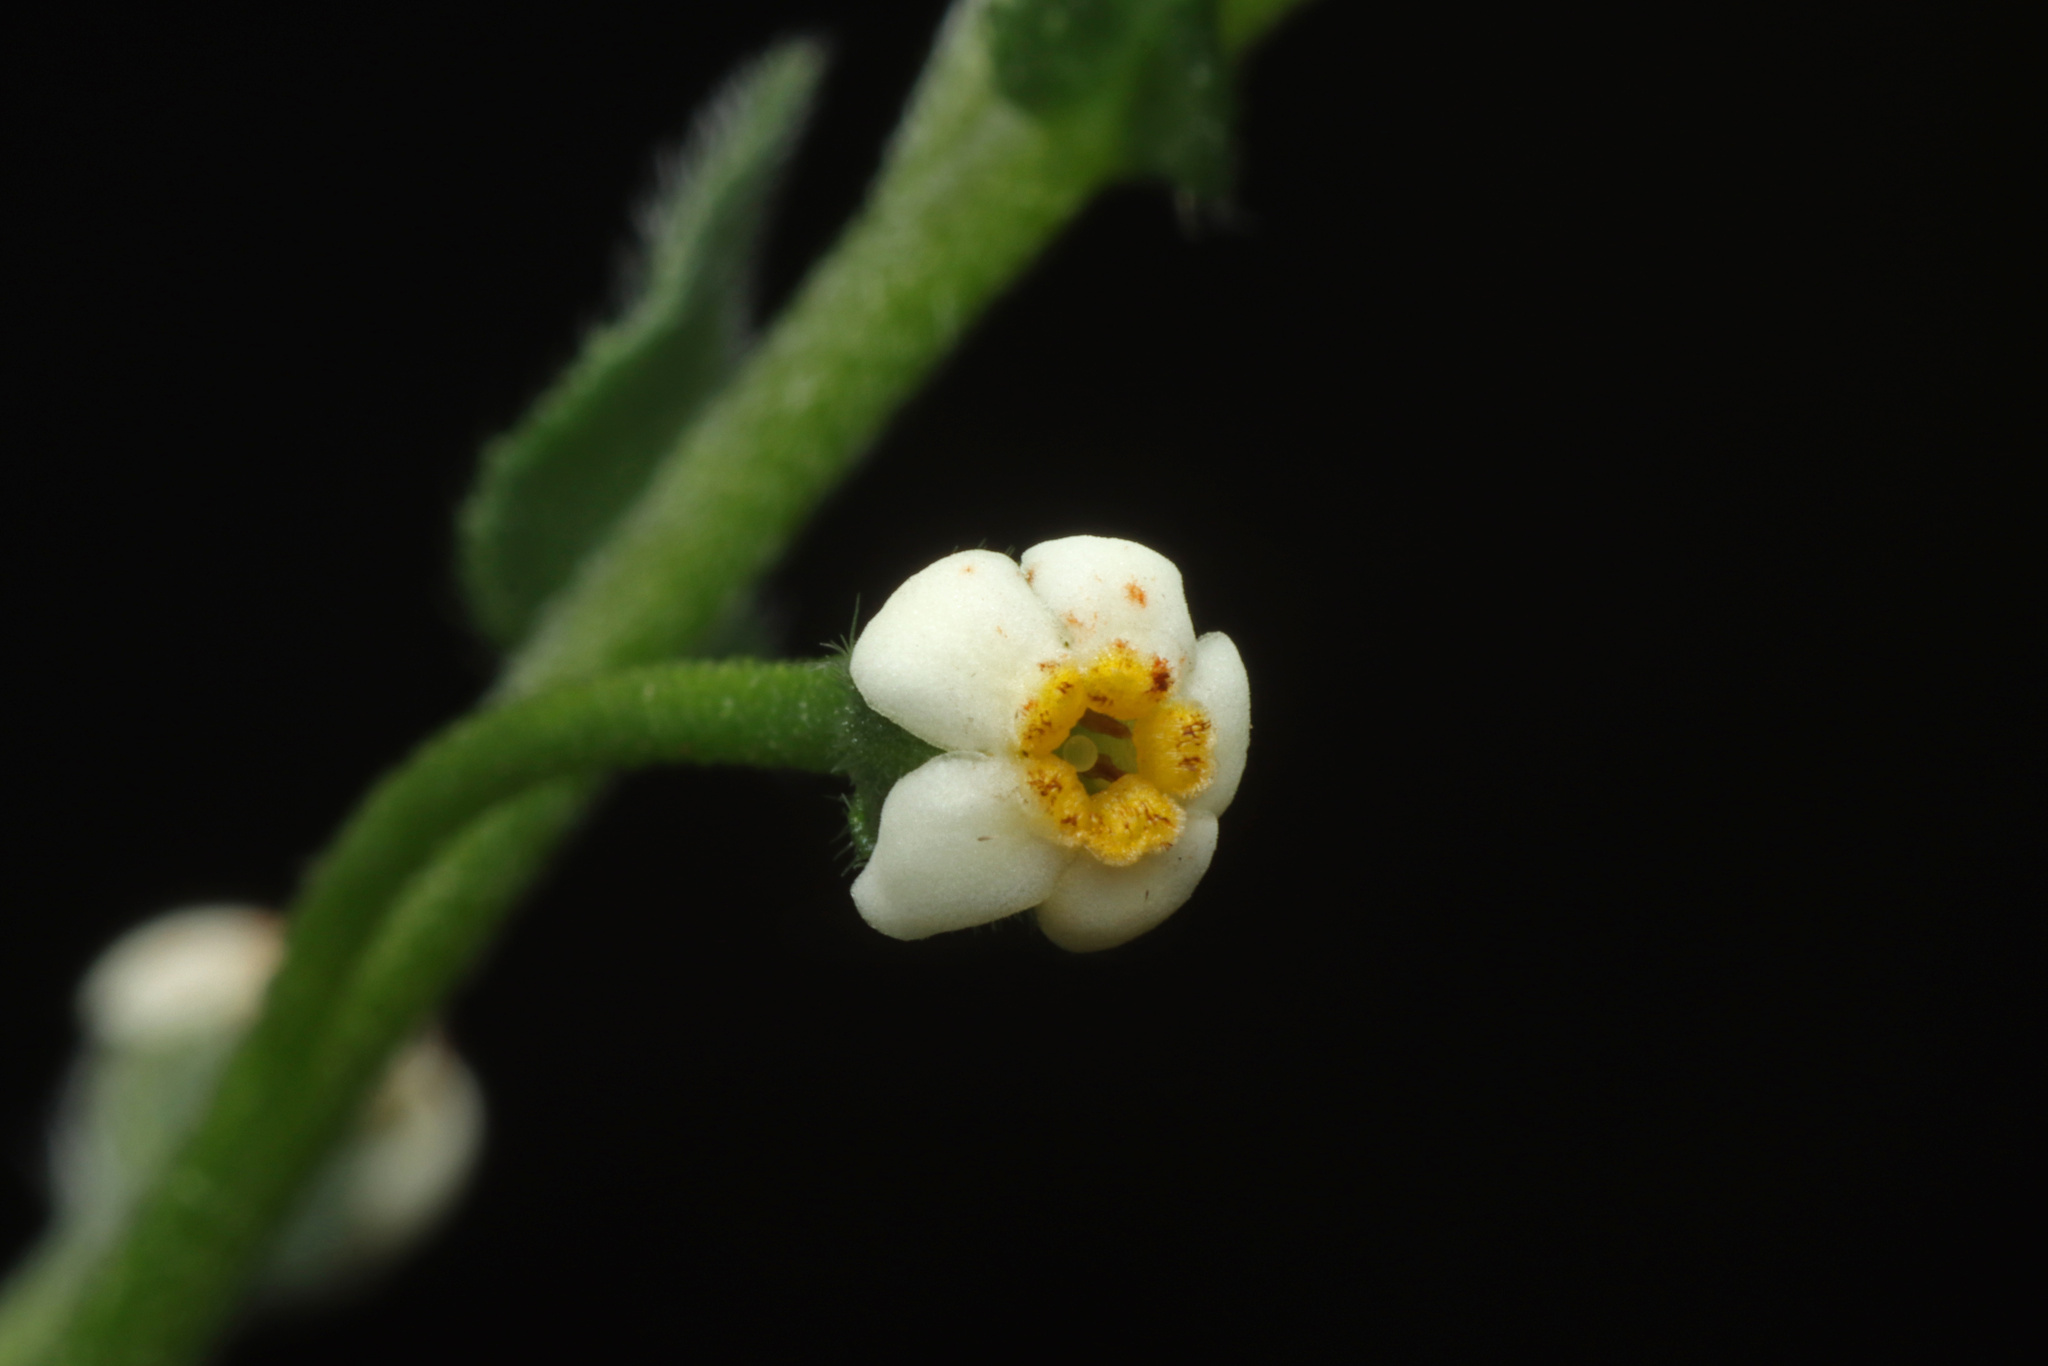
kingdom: Plantae
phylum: Tracheophyta
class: Magnoliopsida
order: Boraginales
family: Boraginaceae
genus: Hackelia
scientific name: Hackelia suaveolens
